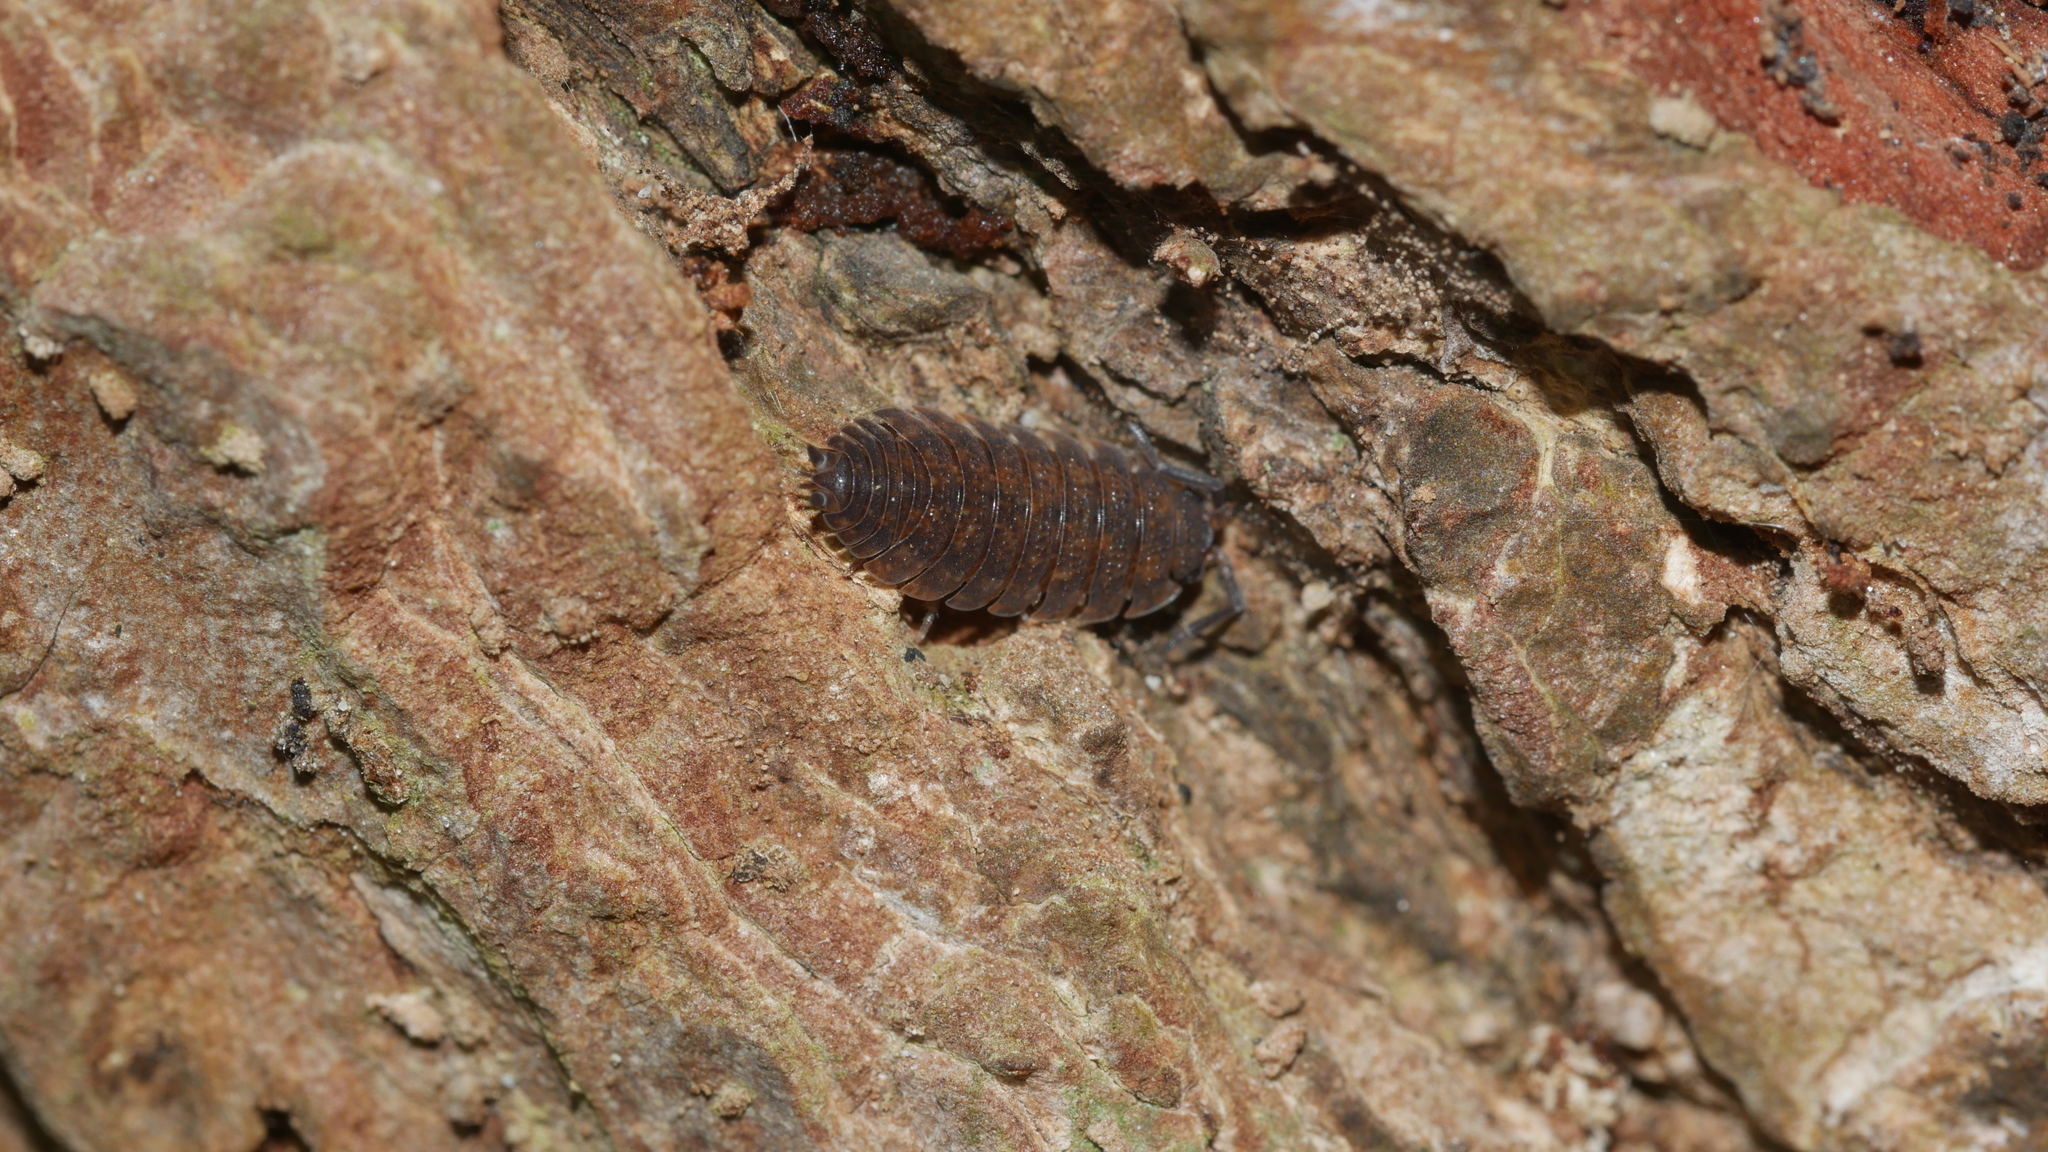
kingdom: Animalia
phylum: Arthropoda
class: Malacostraca
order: Isopoda
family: Porcellionidae
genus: Porcellio
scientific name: Porcellio scaber
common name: Common rough woodlouse
